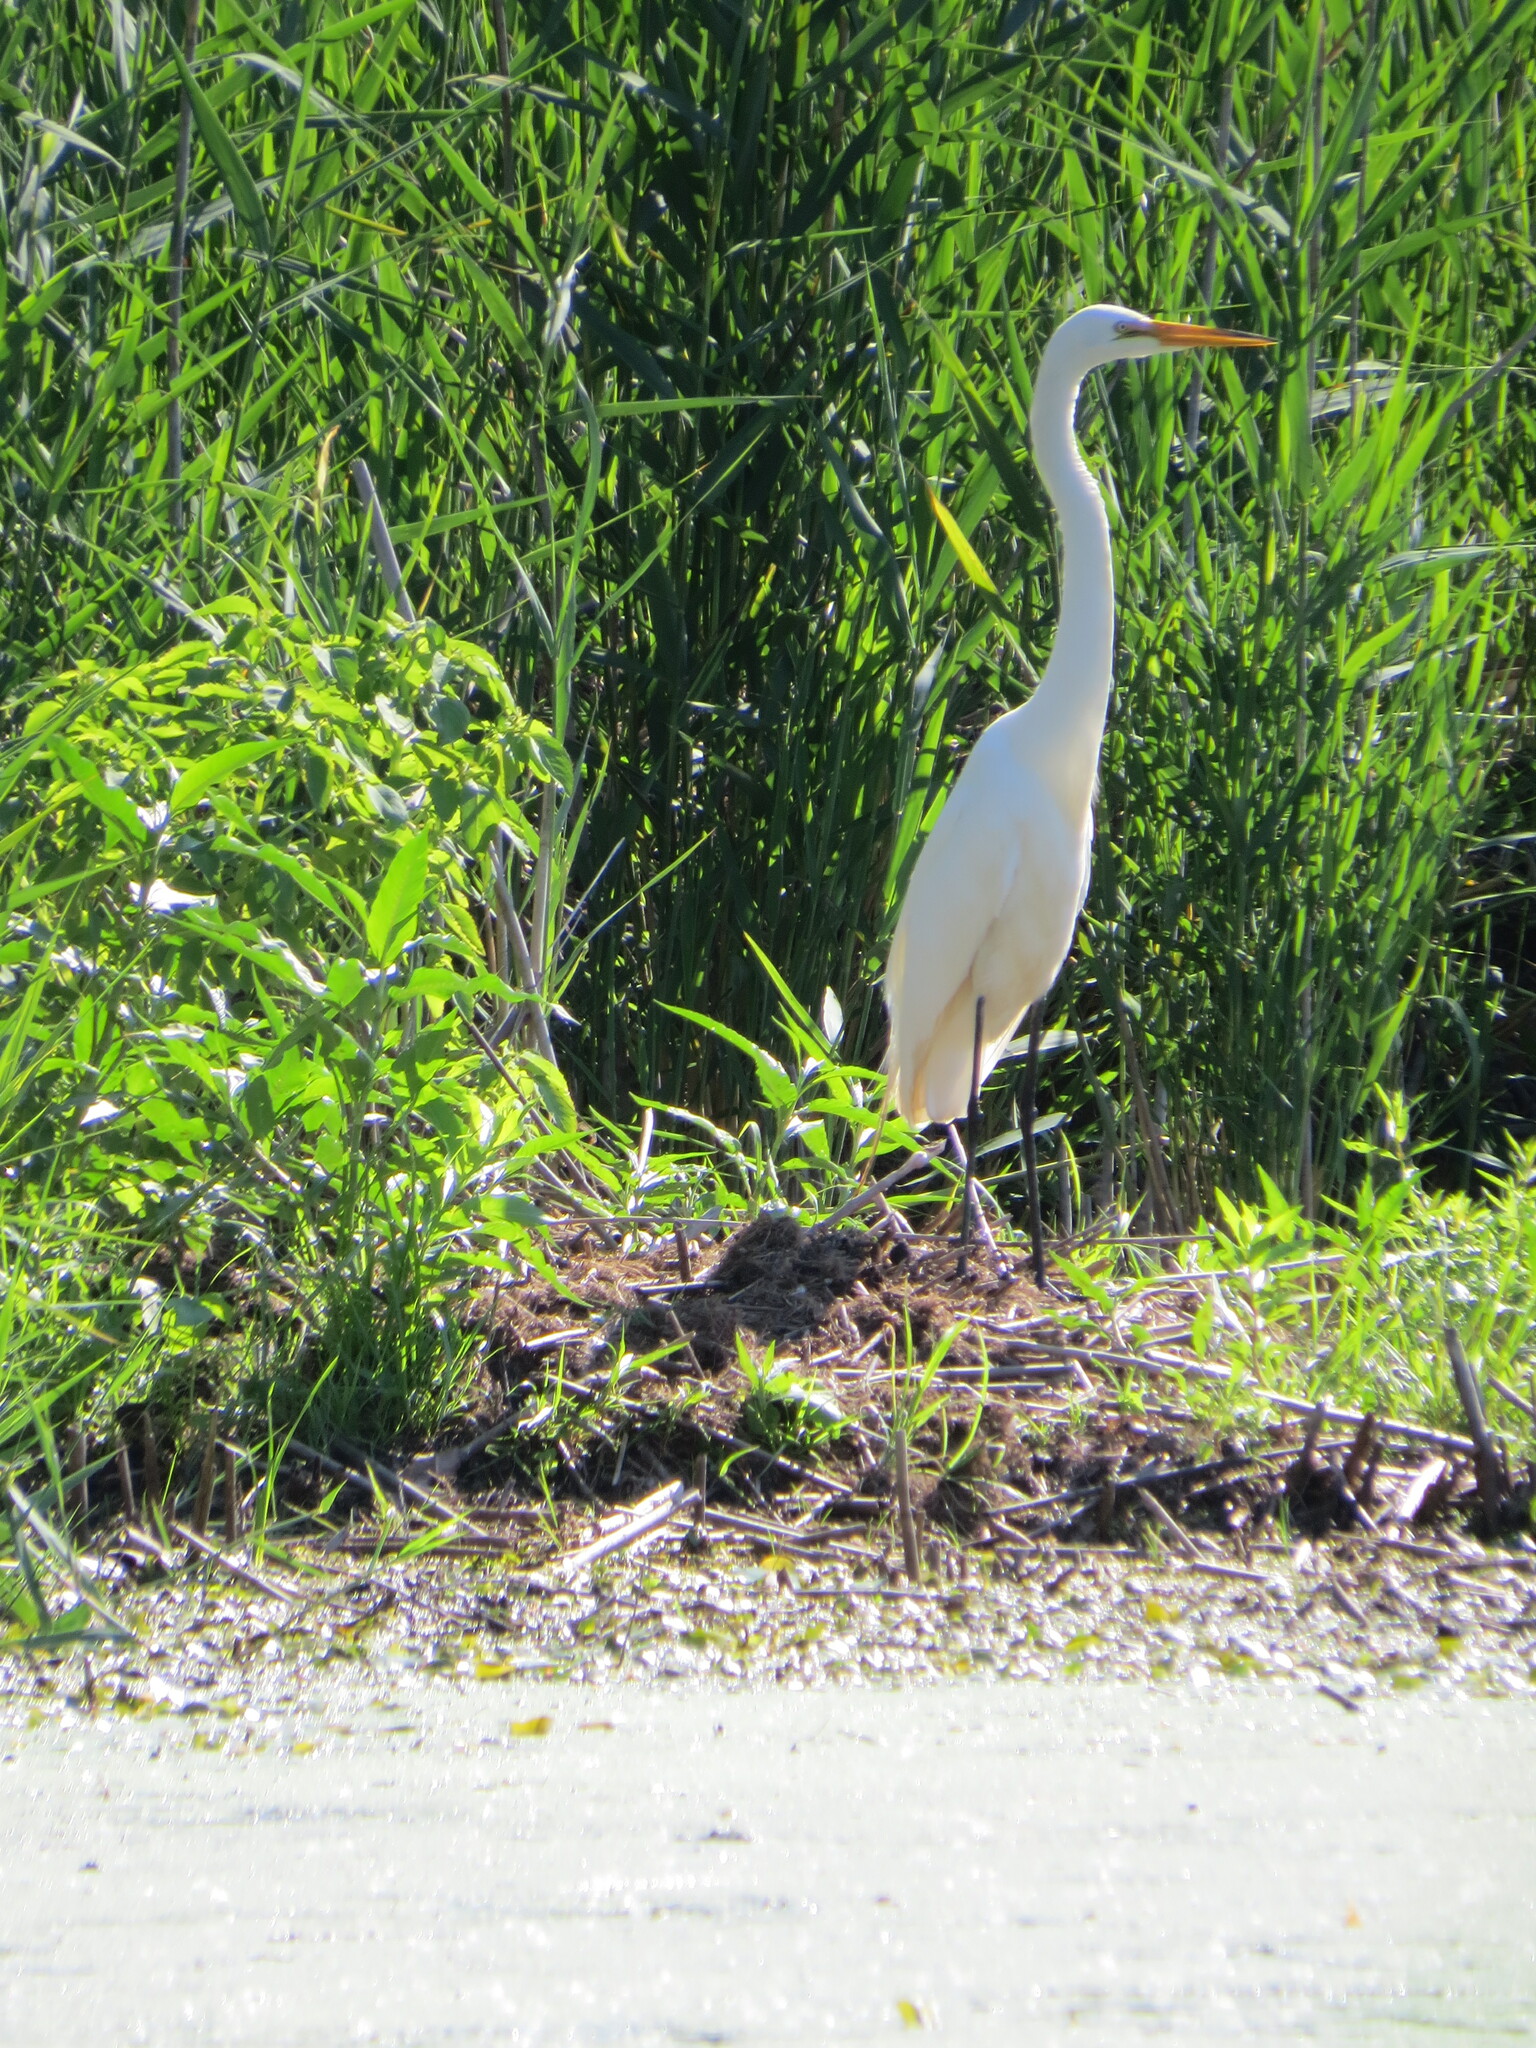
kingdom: Animalia
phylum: Chordata
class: Aves
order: Pelecaniformes
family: Ardeidae
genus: Ardea
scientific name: Ardea alba
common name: Great egret
